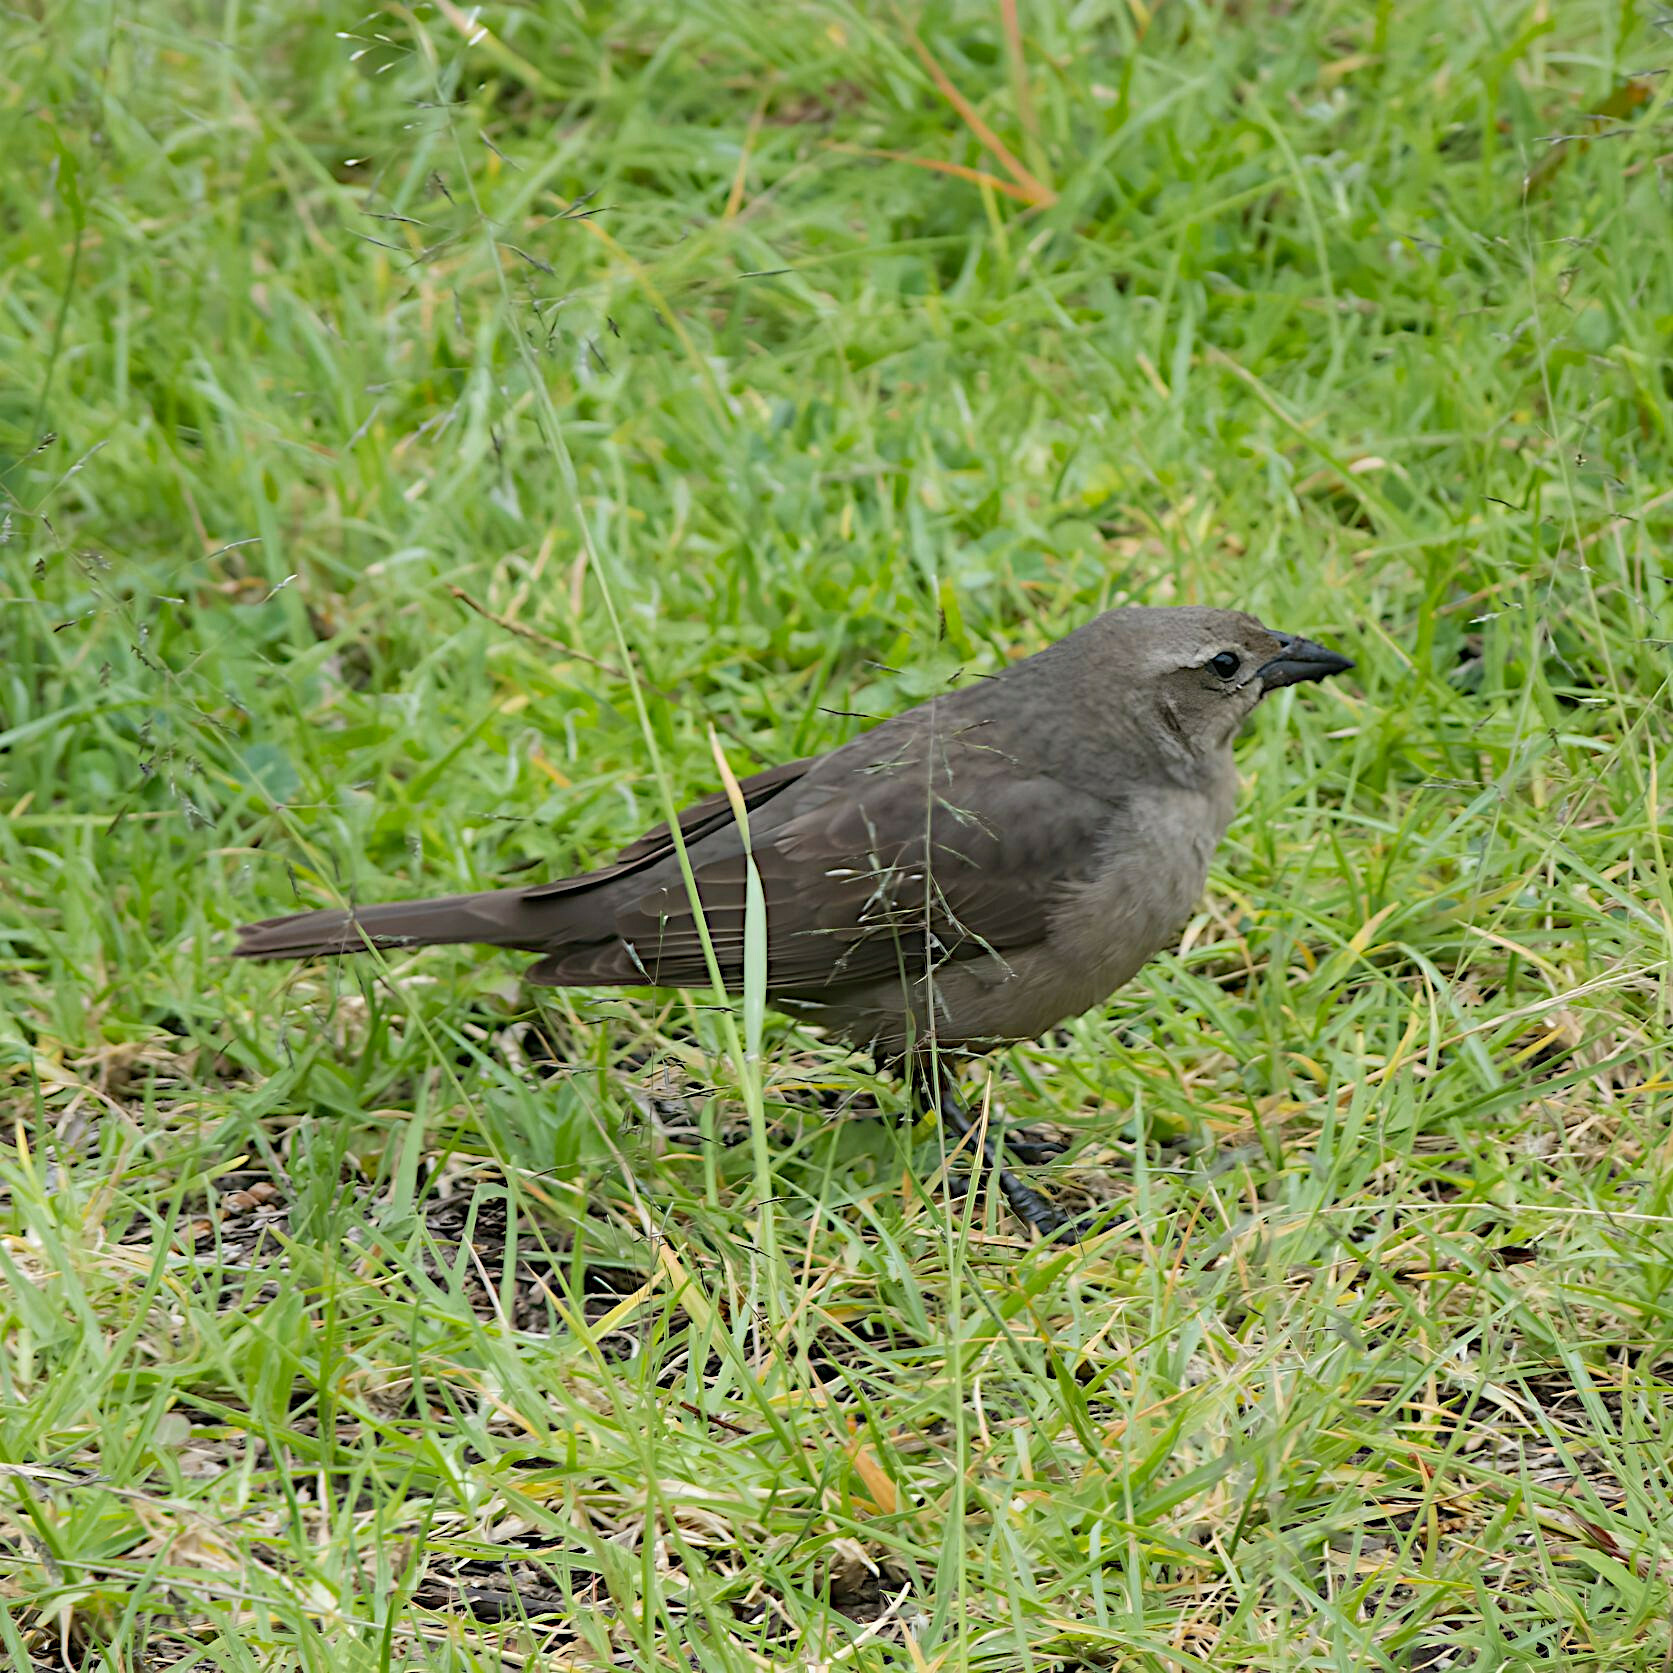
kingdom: Animalia
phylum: Chordata
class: Aves
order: Passeriformes
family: Icteridae
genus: Molothrus
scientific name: Molothrus bonariensis
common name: Shiny cowbird
